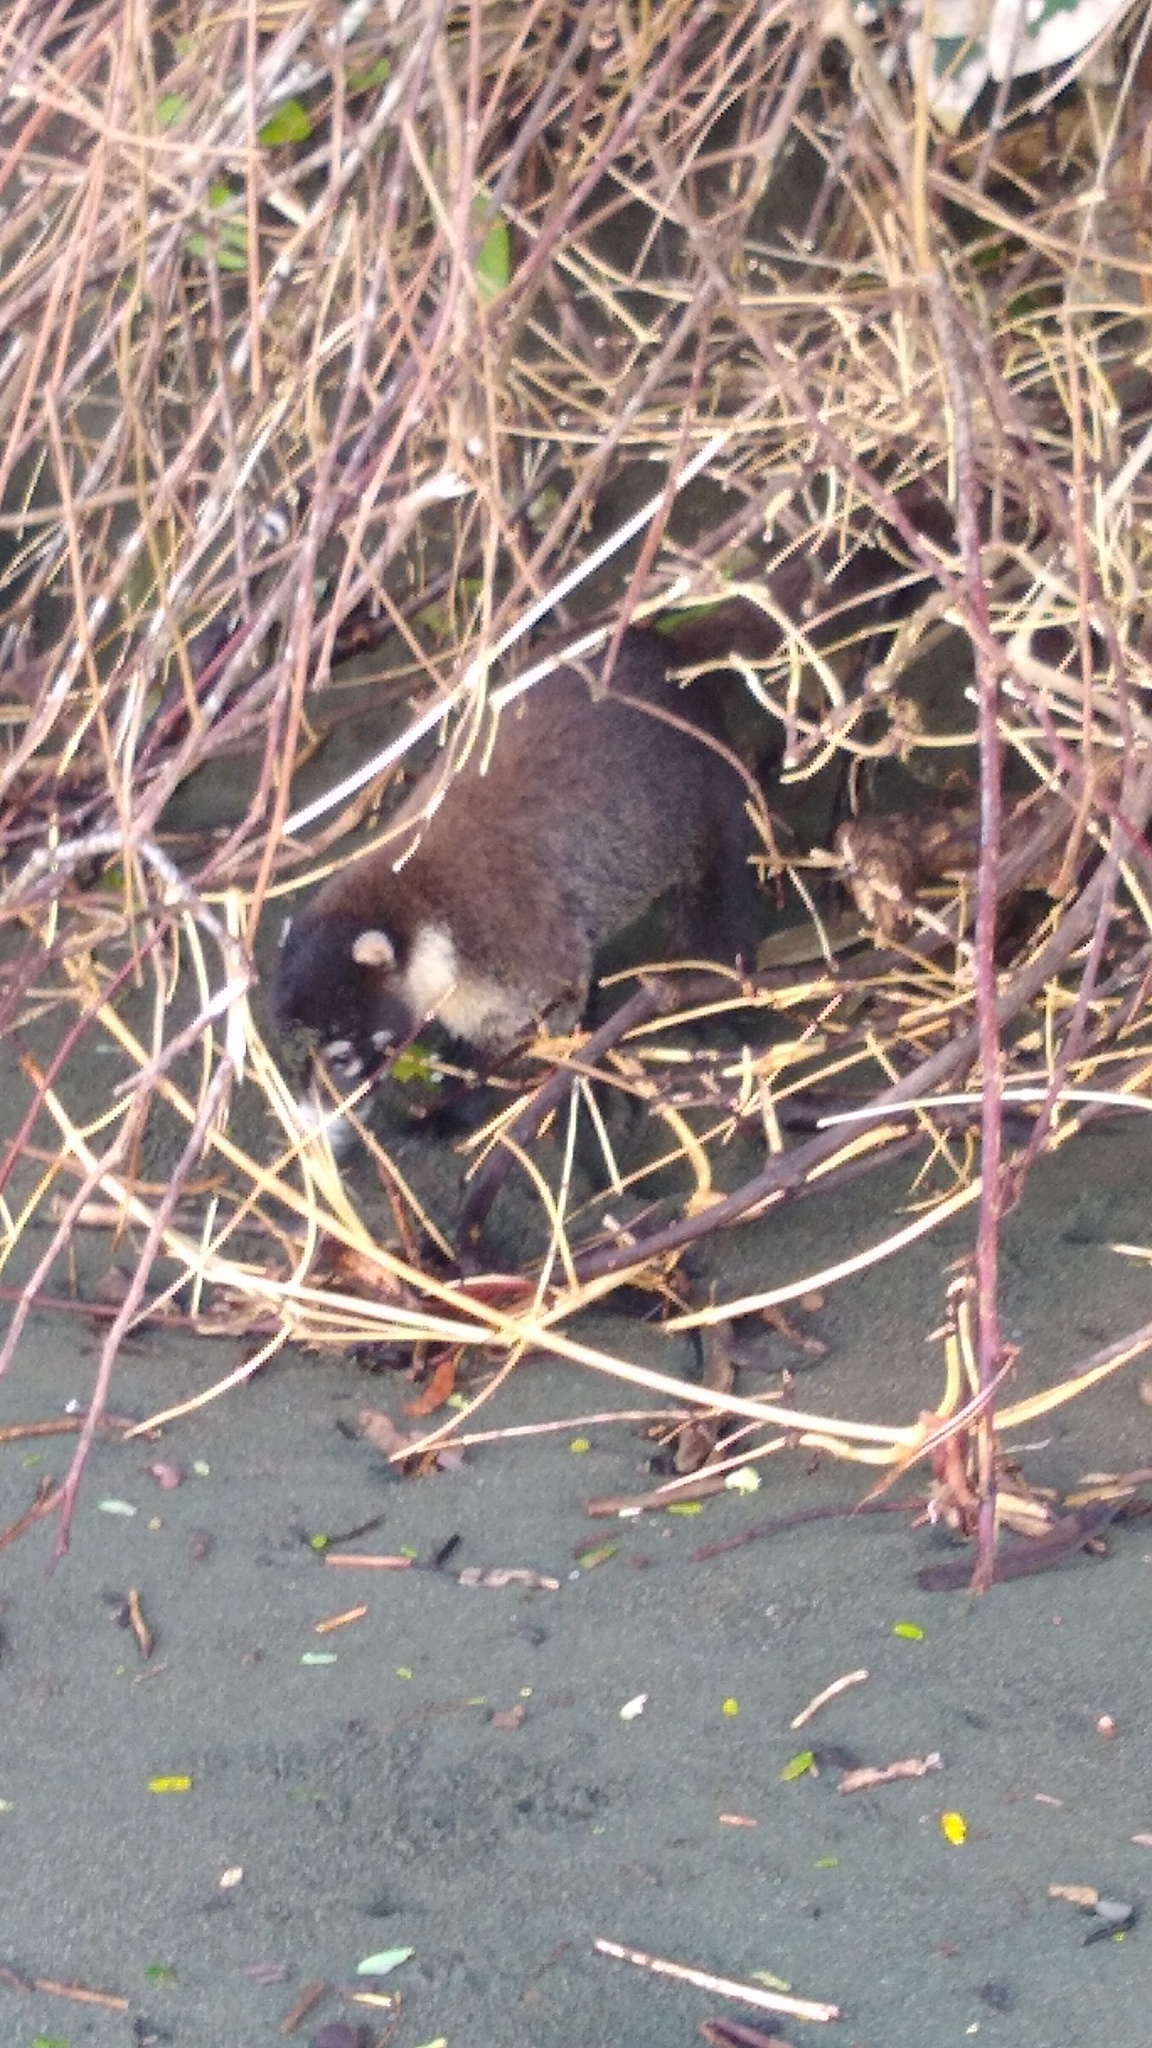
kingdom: Animalia
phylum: Chordata
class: Mammalia
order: Carnivora
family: Procyonidae
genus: Nasua
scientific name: Nasua narica
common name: White-nosed coati
